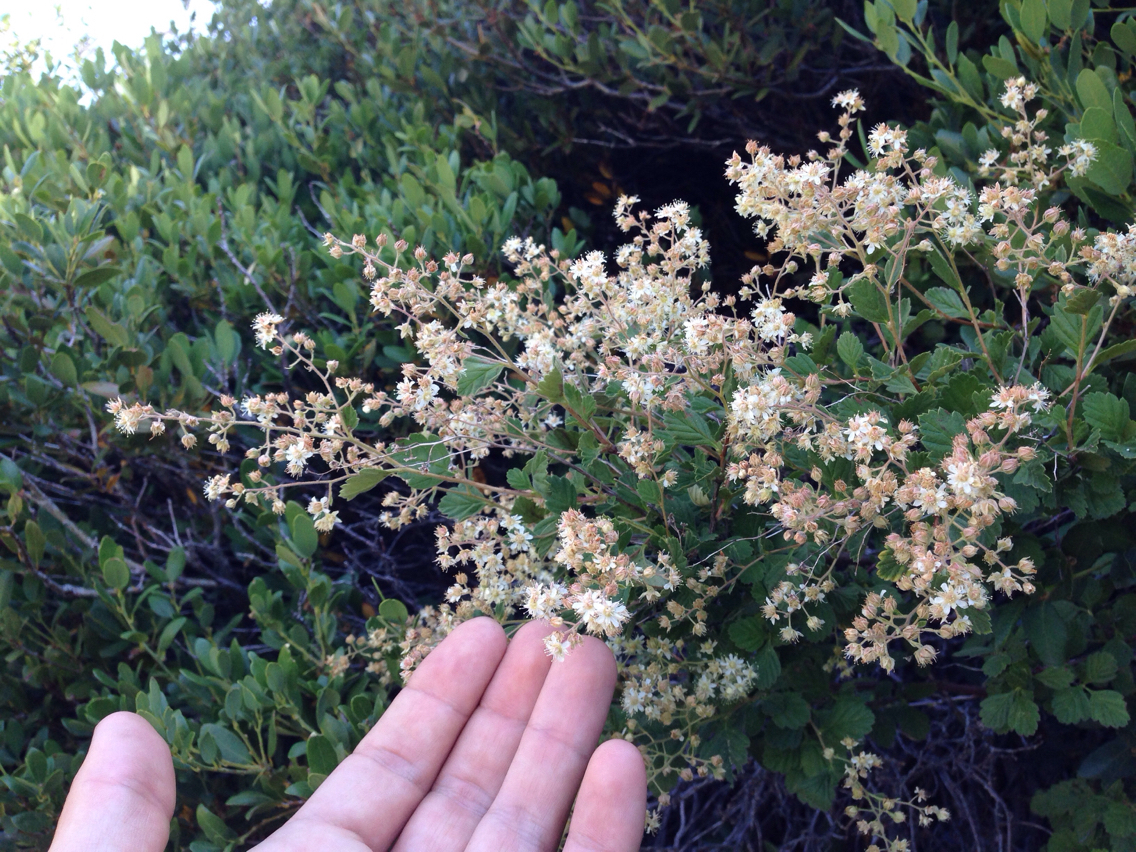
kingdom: Plantae
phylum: Tracheophyta
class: Magnoliopsida
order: Rosales
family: Rosaceae
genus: Holodiscus
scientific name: Holodiscus discolor
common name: Oceanspray
